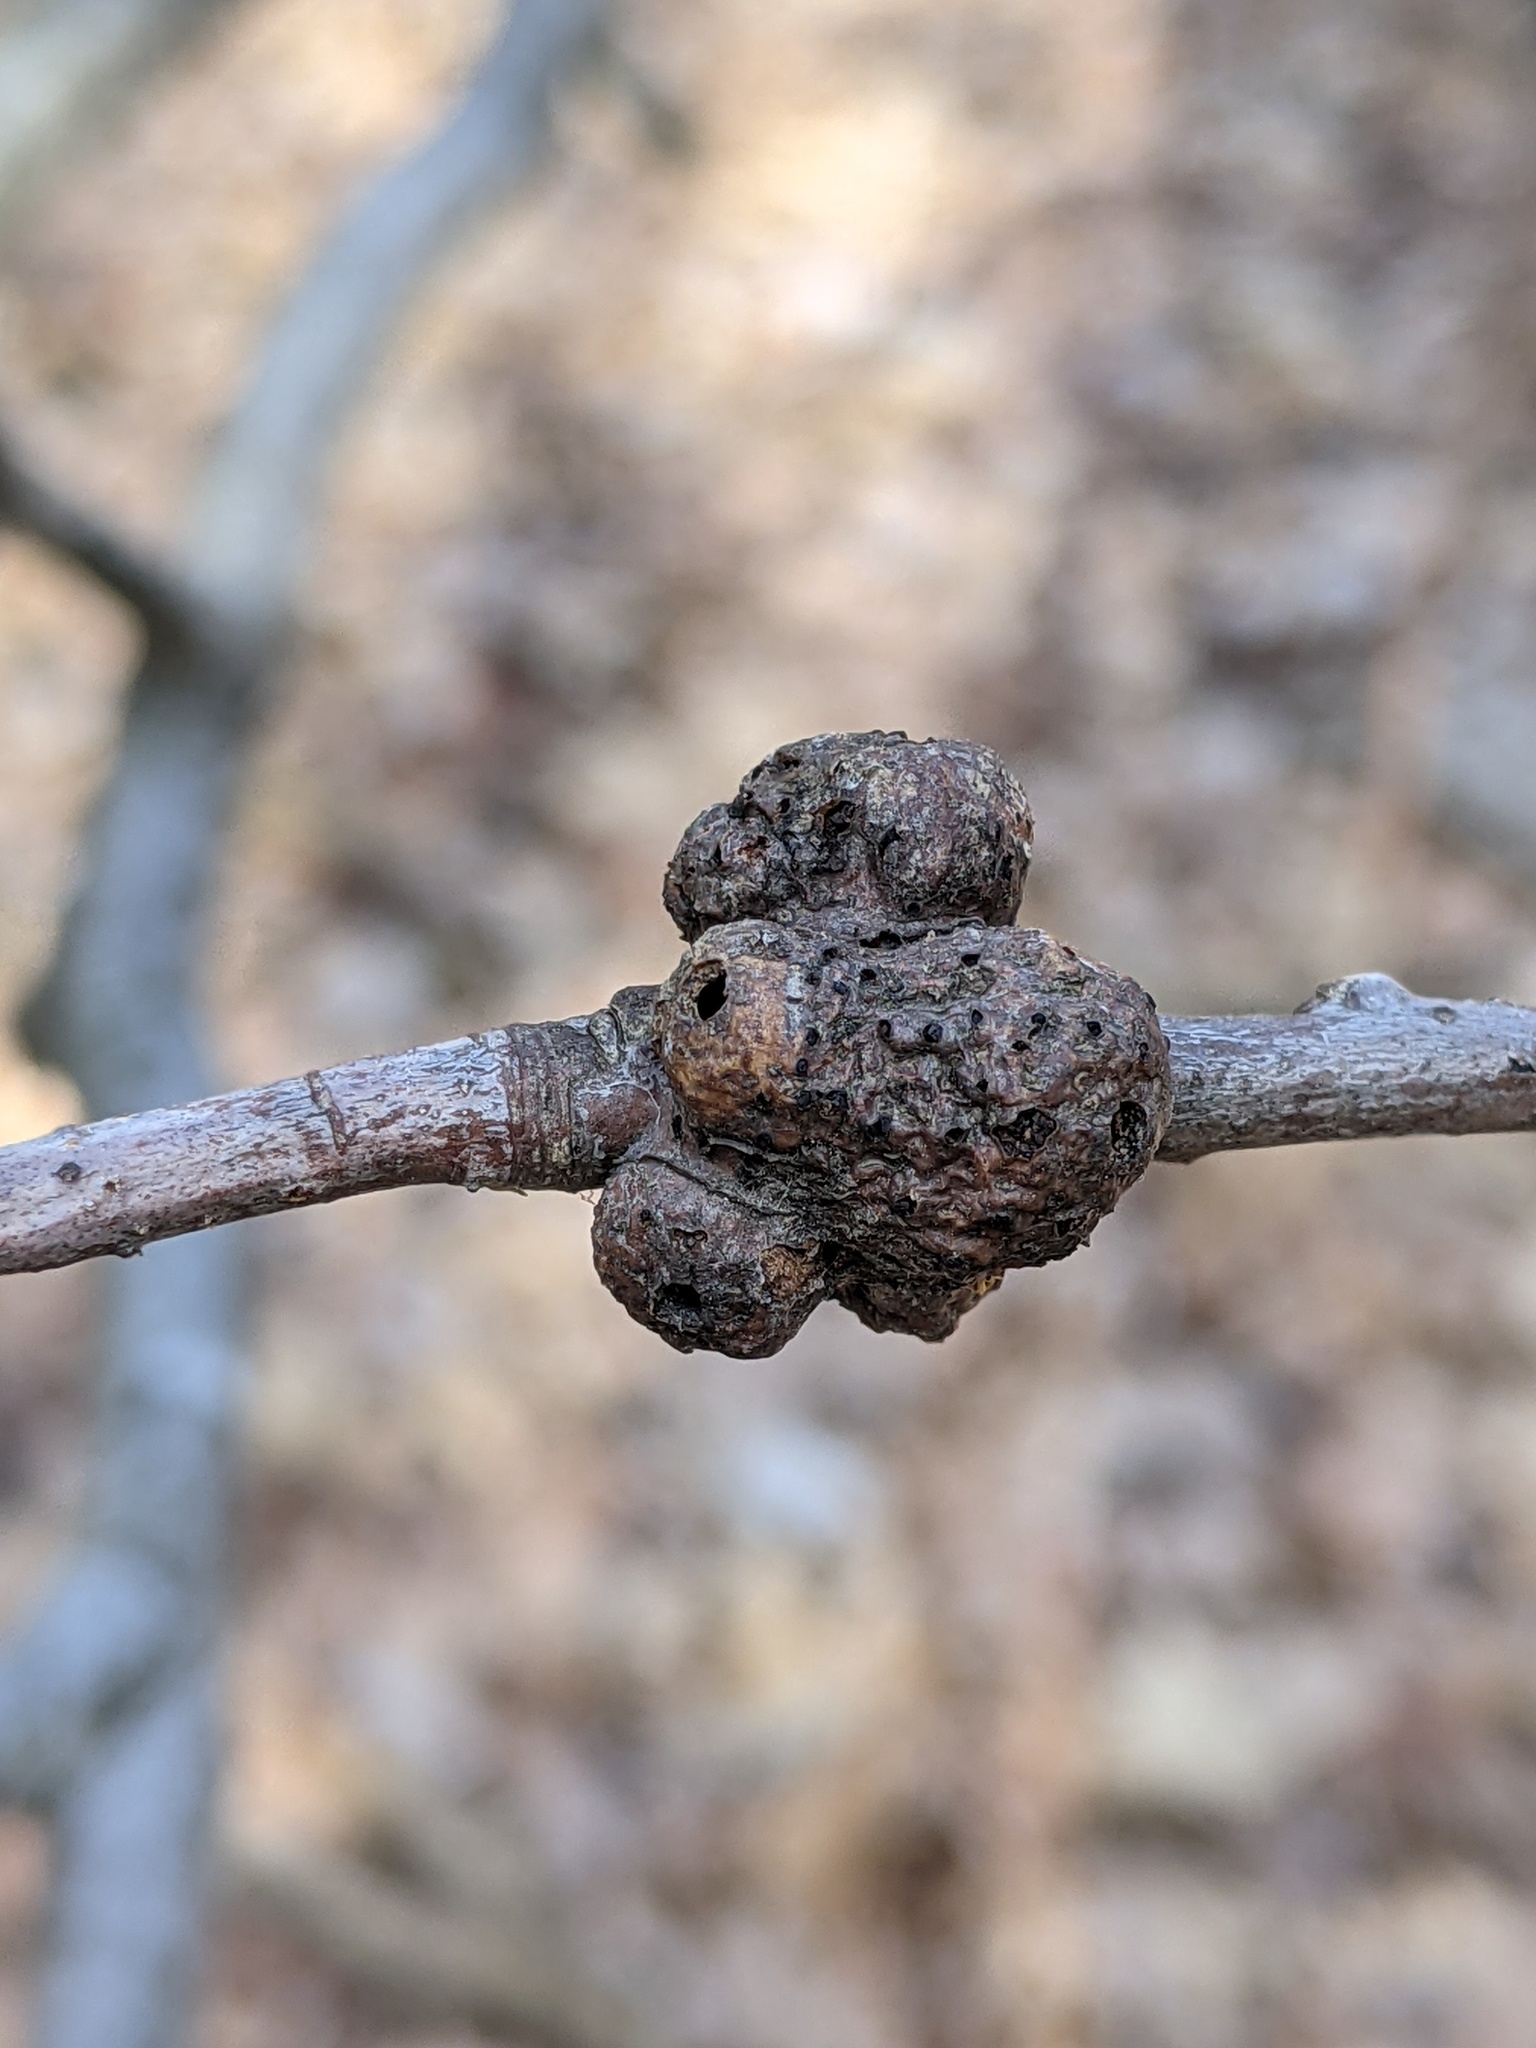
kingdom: Animalia
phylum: Arthropoda
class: Insecta
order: Hymenoptera
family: Cynipidae
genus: Callirhytis
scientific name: Callirhytis
